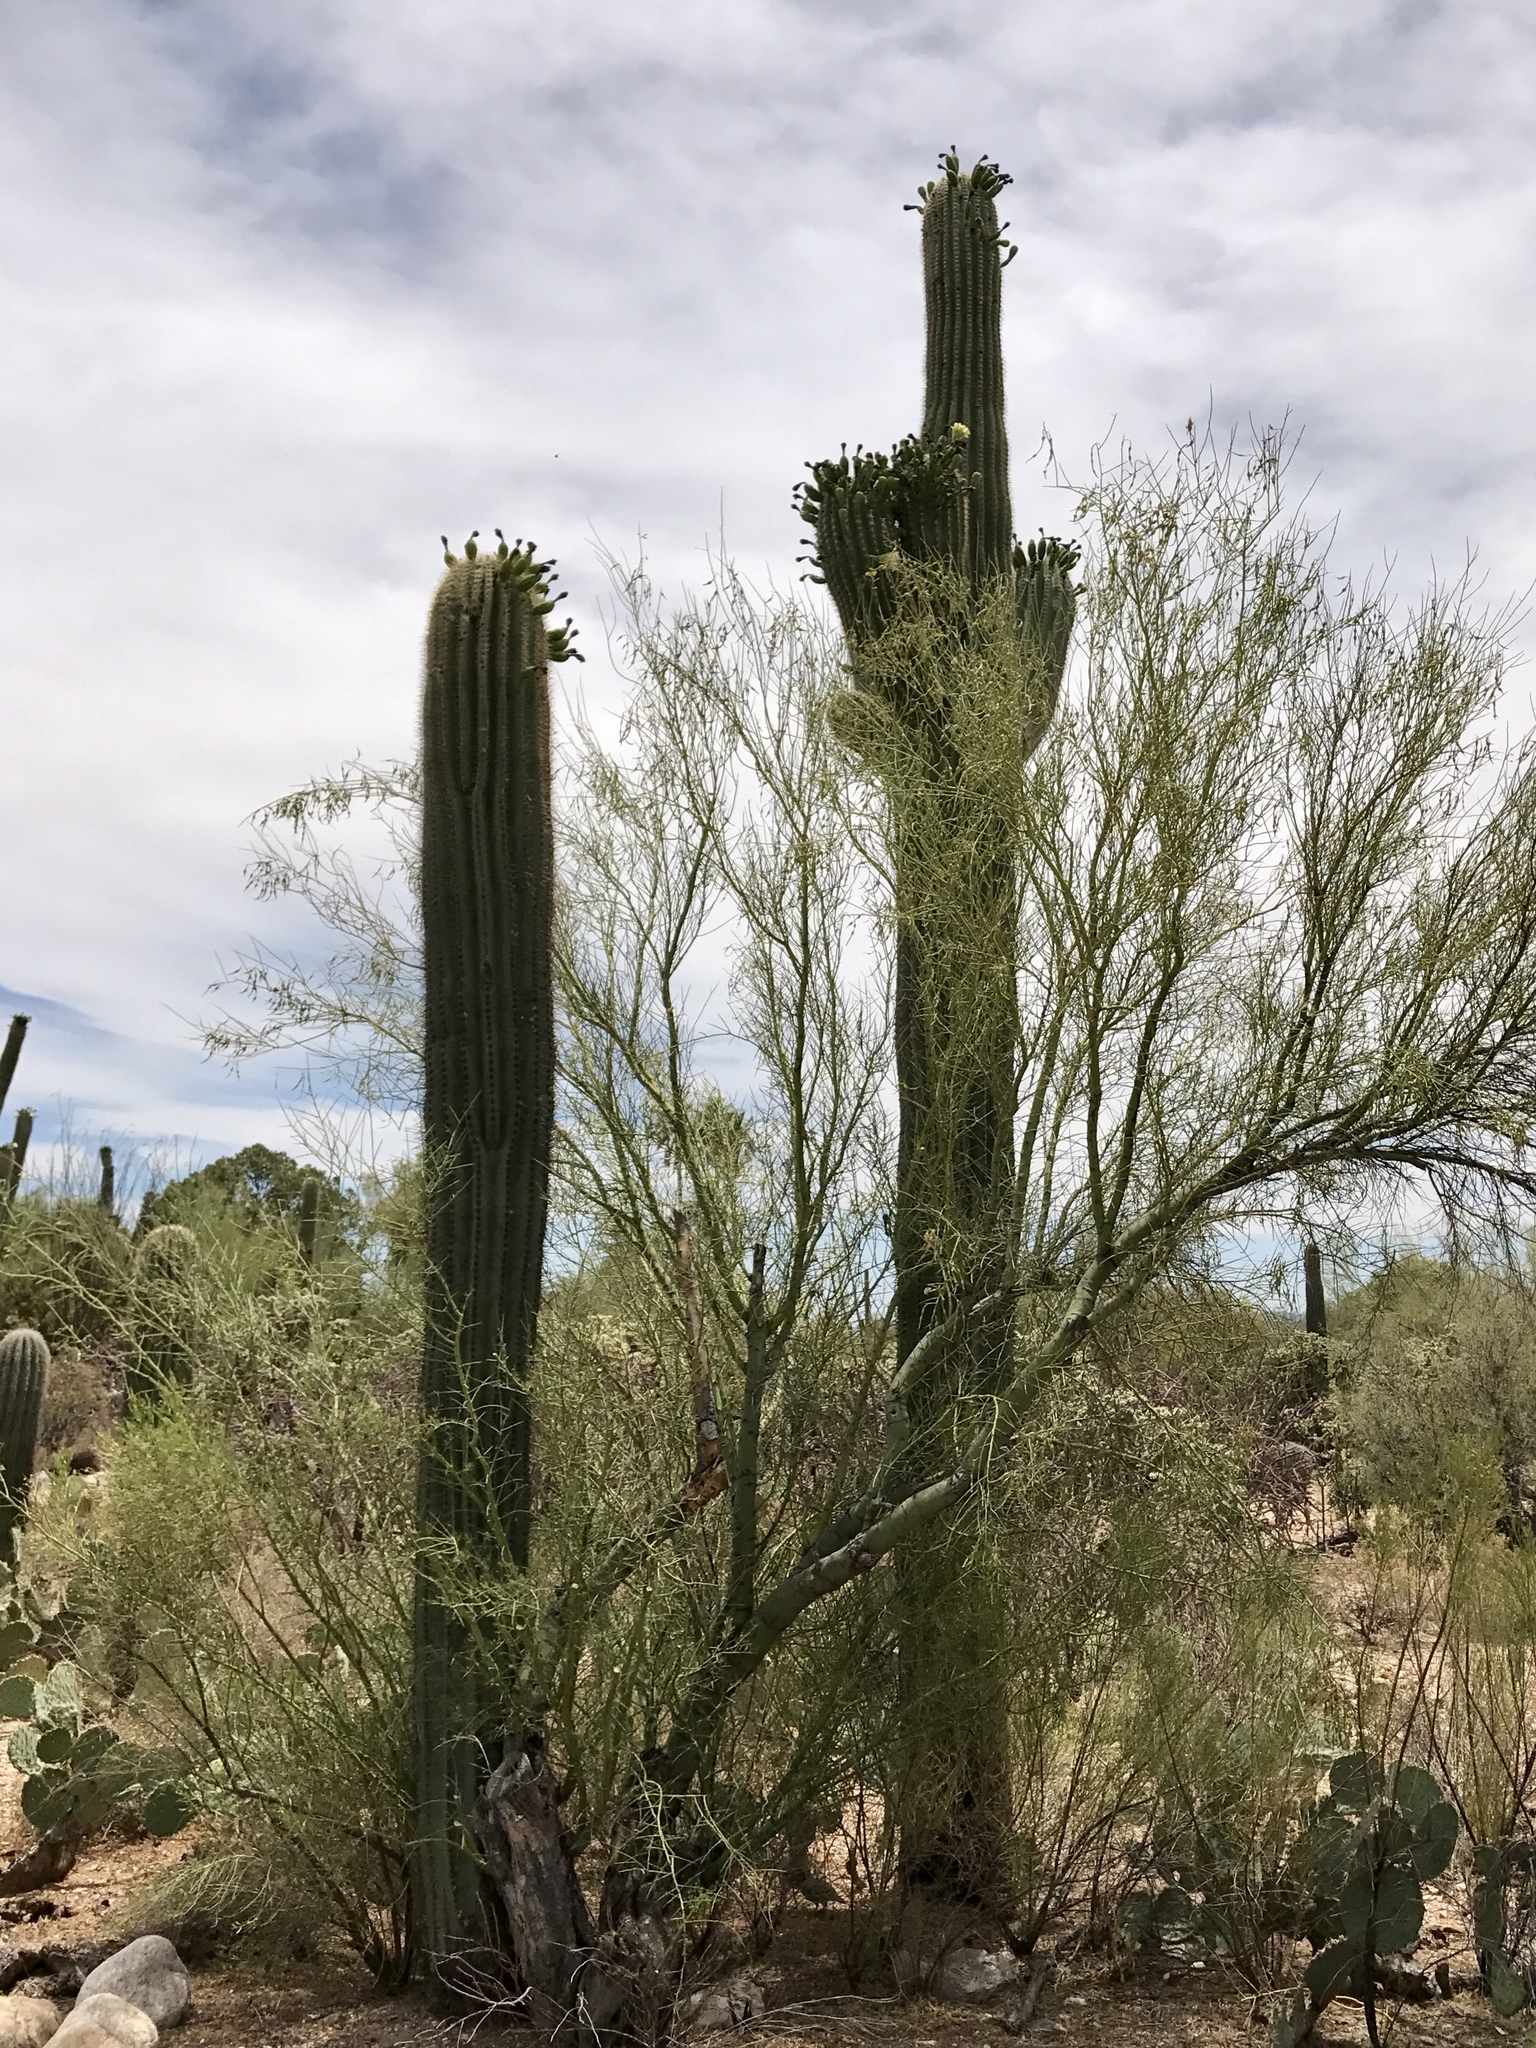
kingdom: Plantae
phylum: Tracheophyta
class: Magnoliopsida
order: Caryophyllales
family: Cactaceae
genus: Carnegiea
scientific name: Carnegiea gigantea
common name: Saguaro
